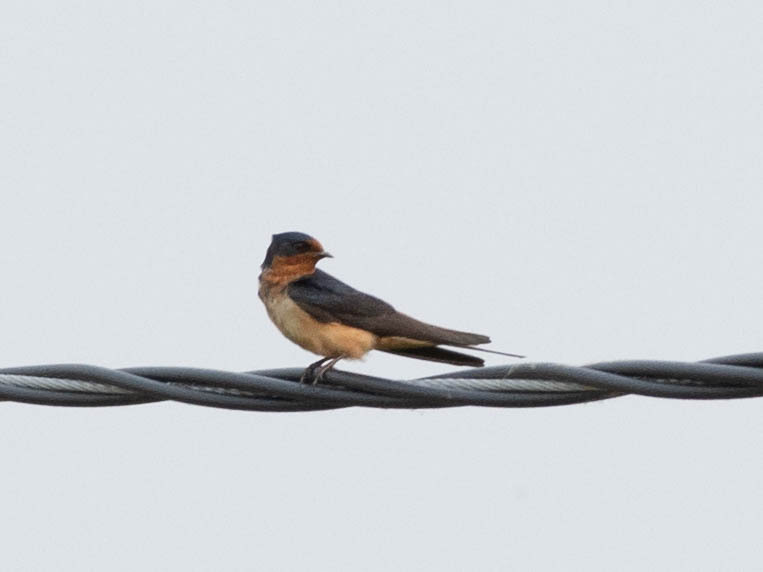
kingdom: Animalia
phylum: Chordata
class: Aves
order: Passeriformes
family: Hirundinidae
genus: Hirundo
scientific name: Hirundo rustica
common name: Barn swallow
